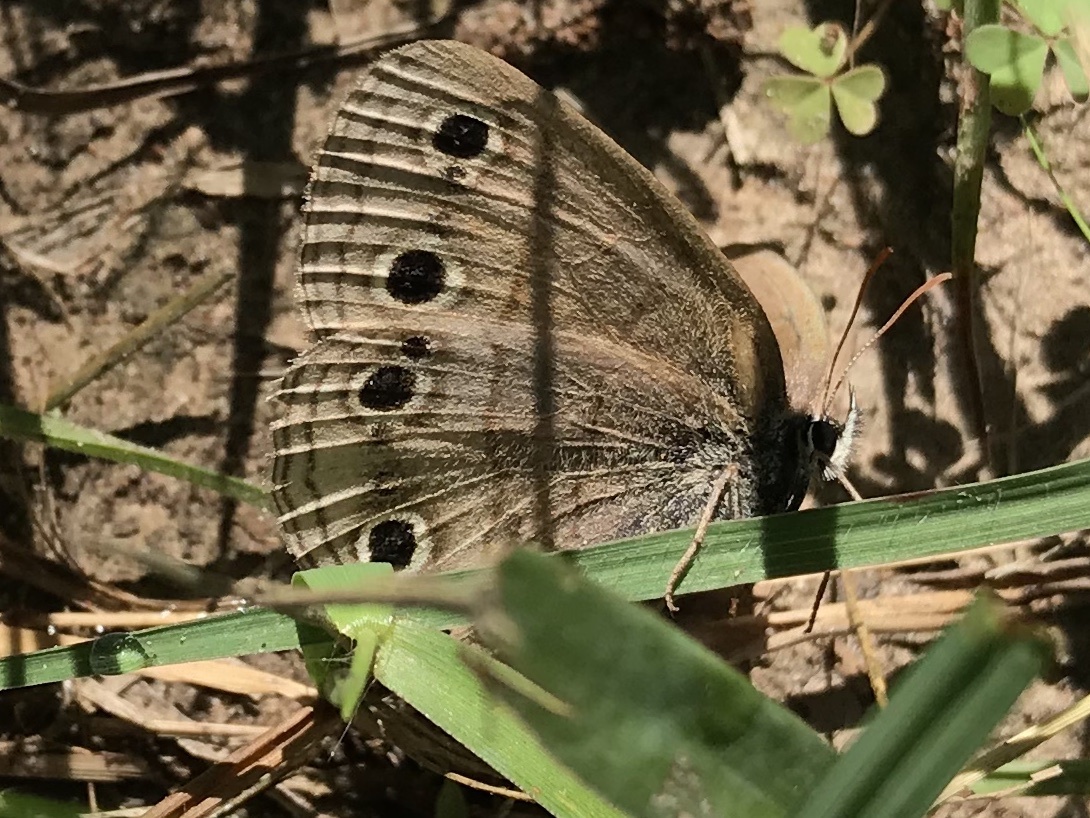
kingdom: Animalia
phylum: Arthropoda
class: Insecta
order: Lepidoptera
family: Nymphalidae
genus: Euptychia
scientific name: Euptychia cymela
